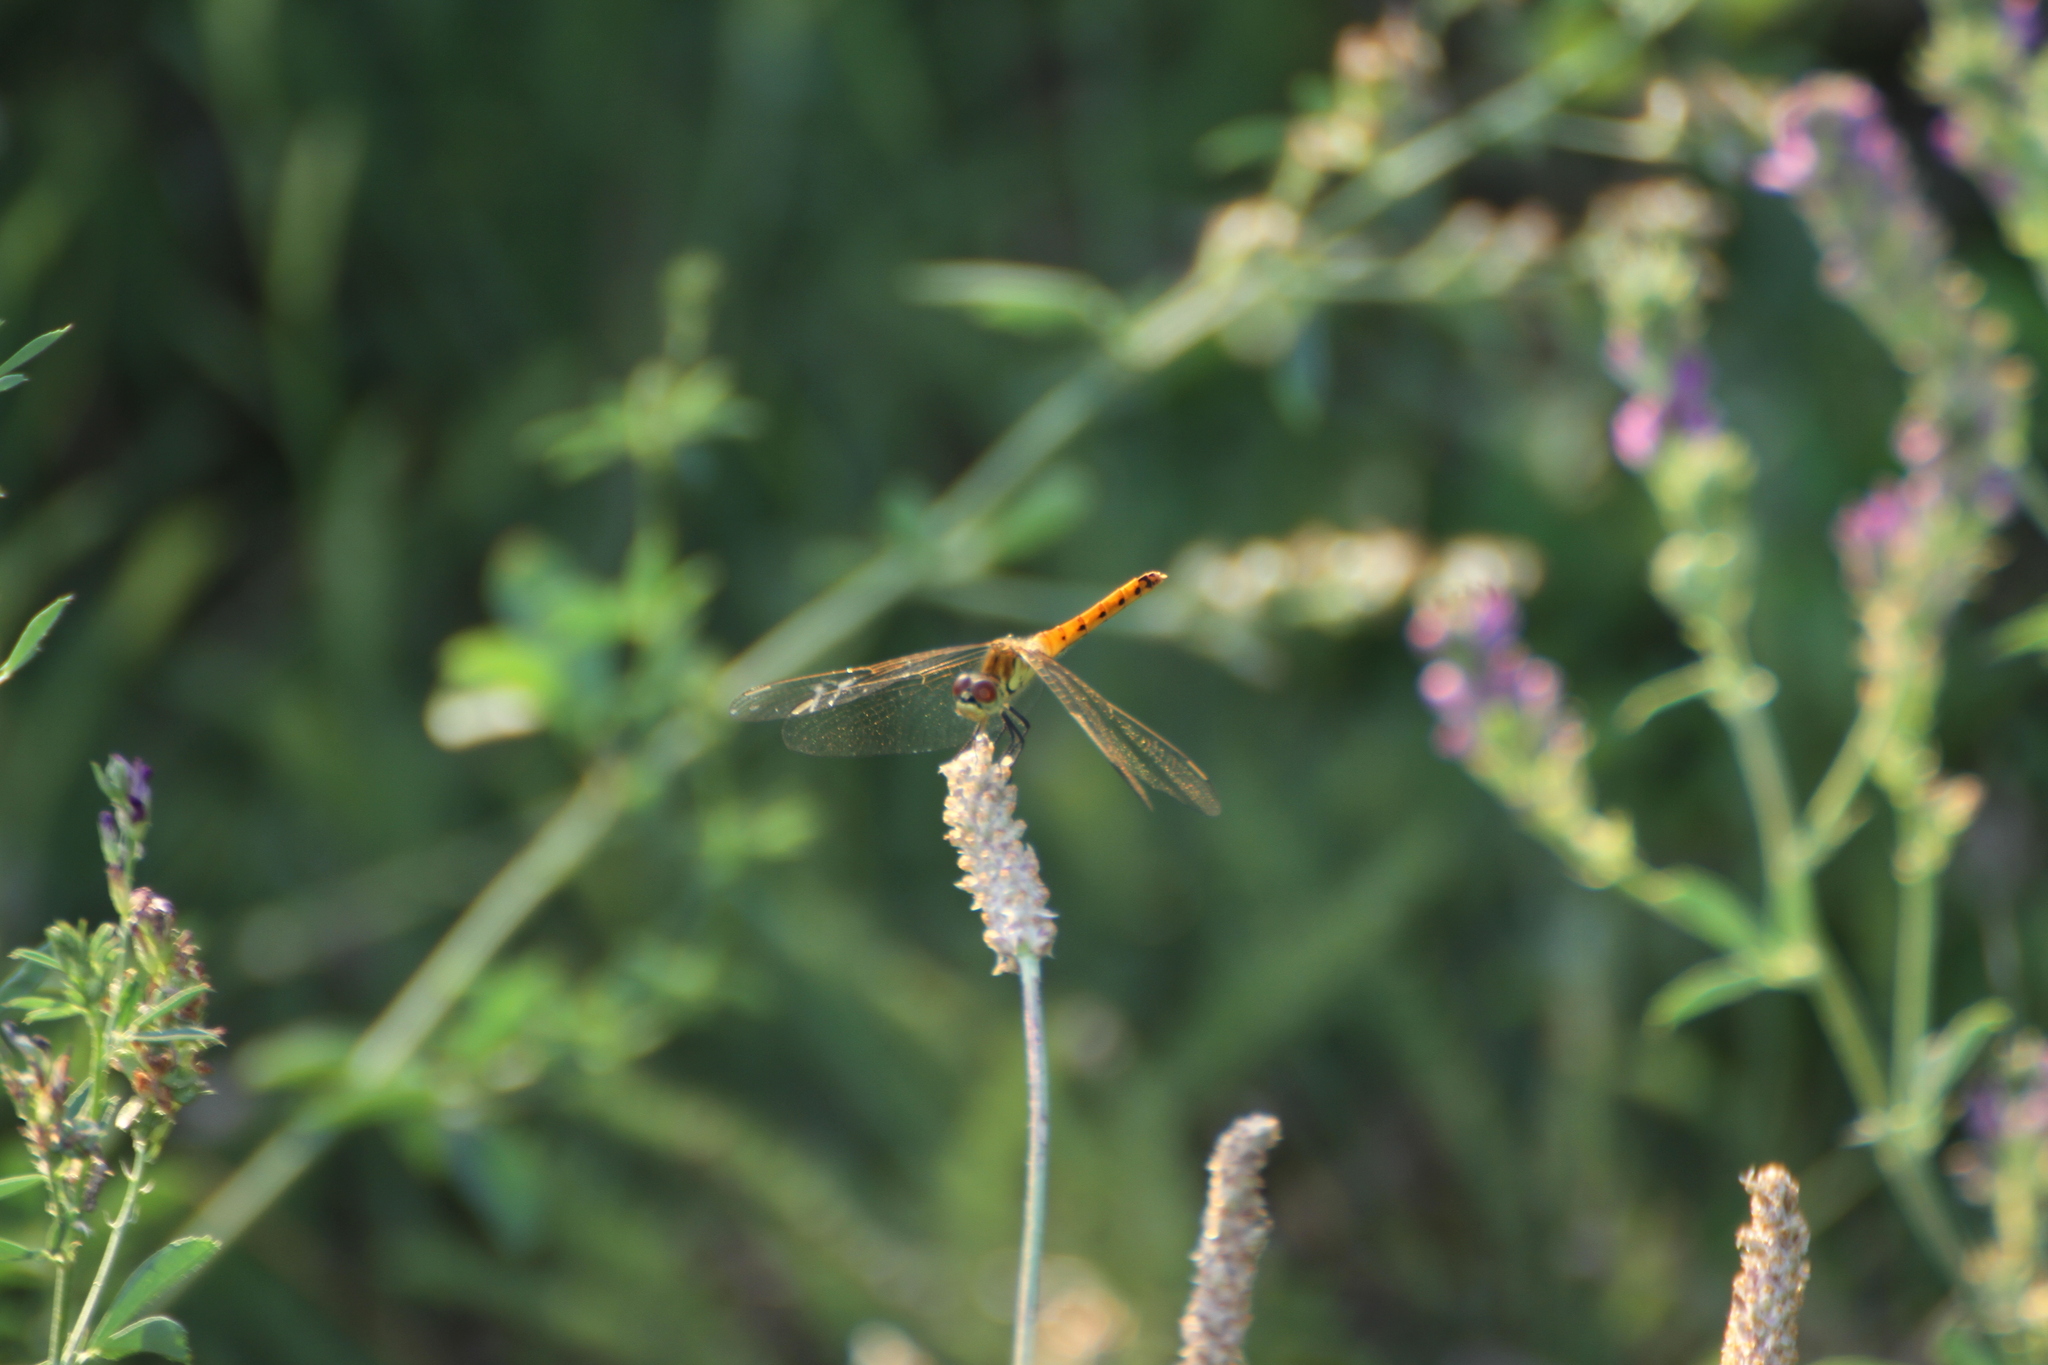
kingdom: Animalia
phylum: Arthropoda
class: Insecta
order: Odonata
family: Libellulidae
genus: Sympetrum
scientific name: Sympetrum depressiusculum
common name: Spotted darter
